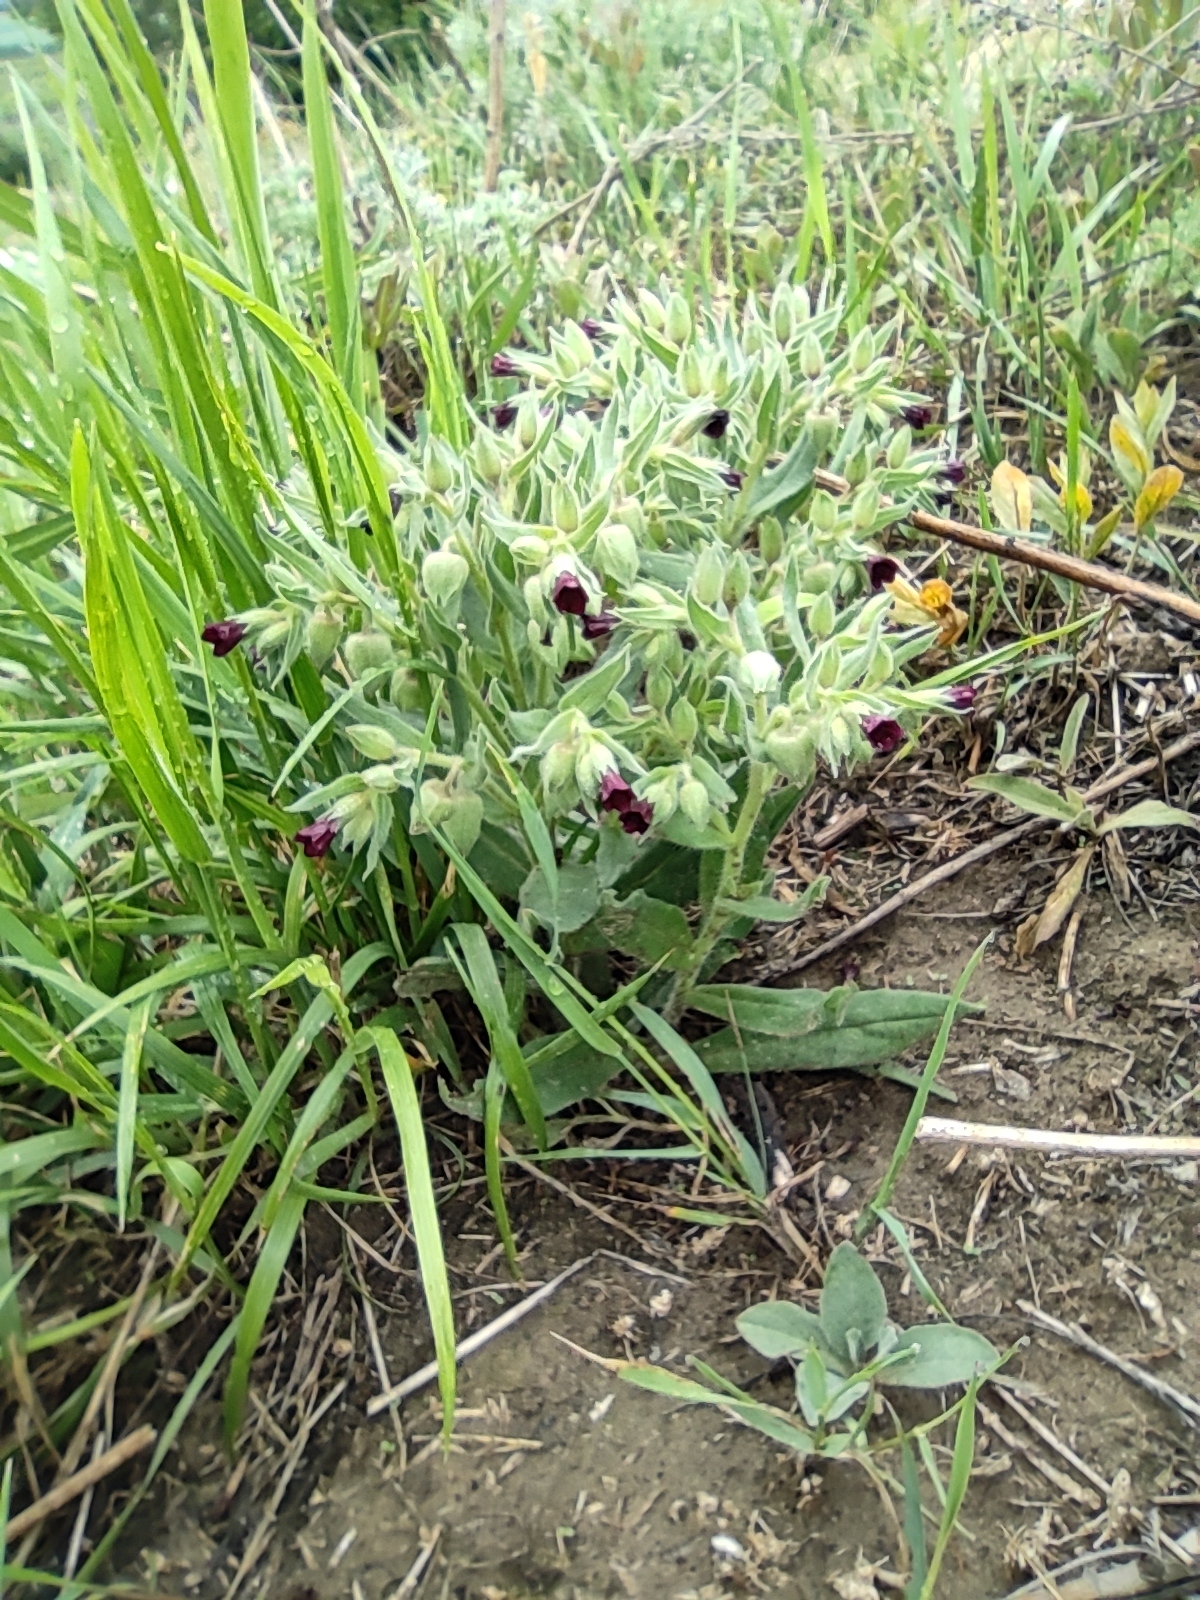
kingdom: Plantae
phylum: Tracheophyta
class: Magnoliopsida
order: Boraginales
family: Boraginaceae
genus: Nonea
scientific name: Nonea pulla
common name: Brown nonea
